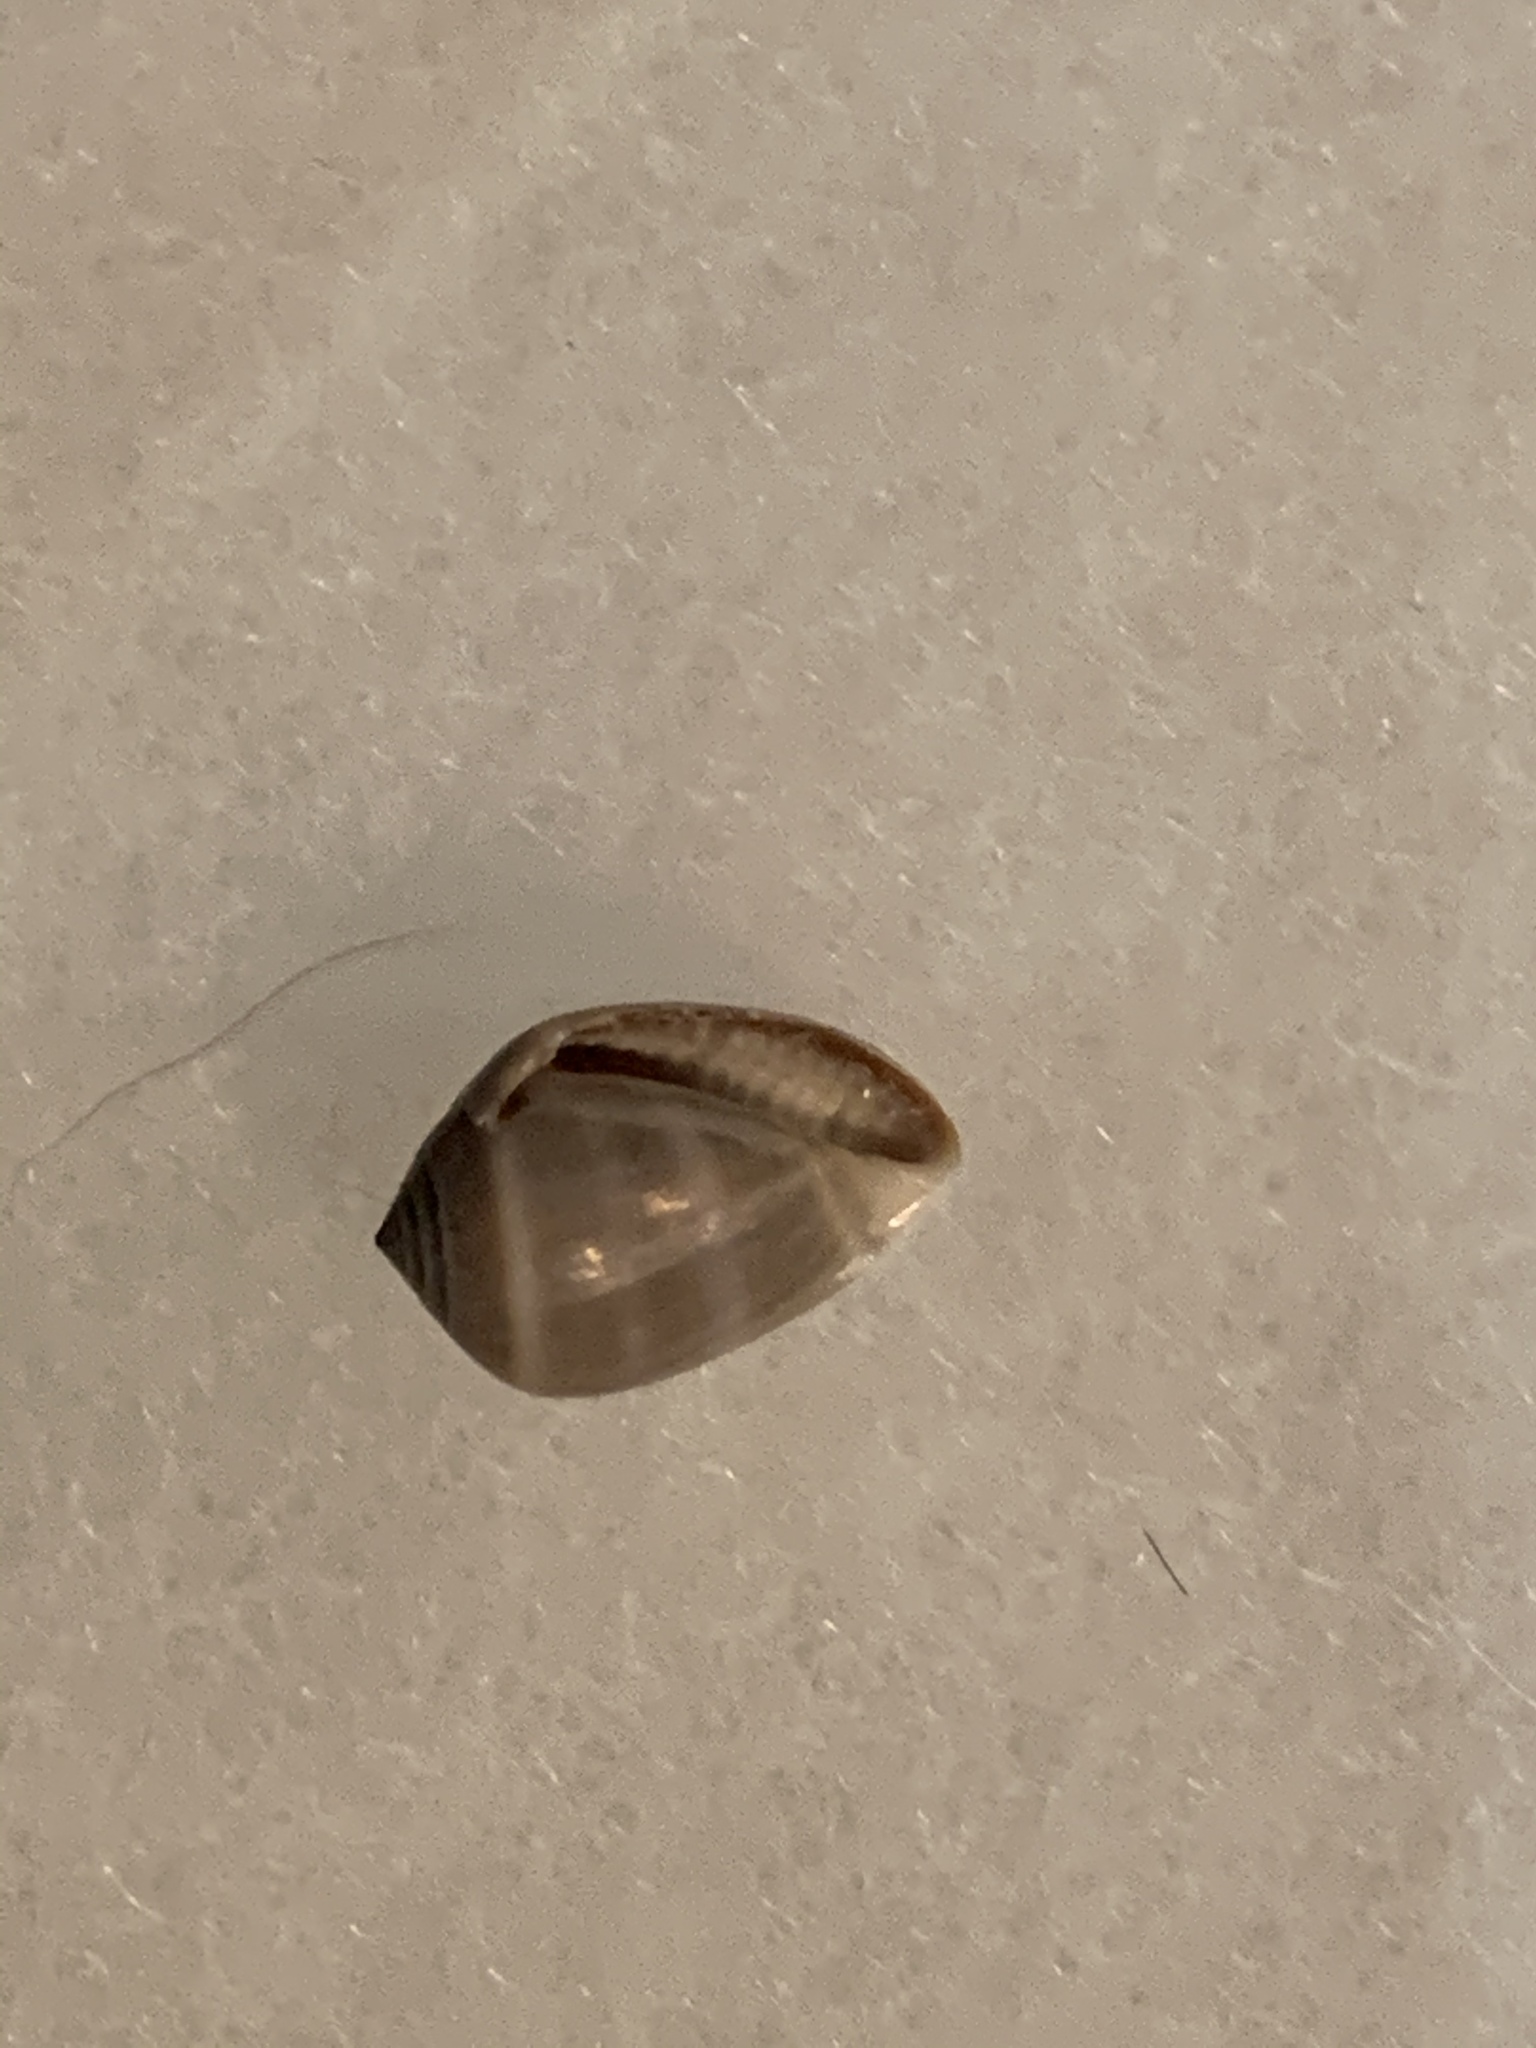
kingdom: Animalia
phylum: Mollusca
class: Gastropoda
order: Ellobiida
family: Ellobiidae
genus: Melampus
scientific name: Melampus coffea
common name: Coffee bean snail
